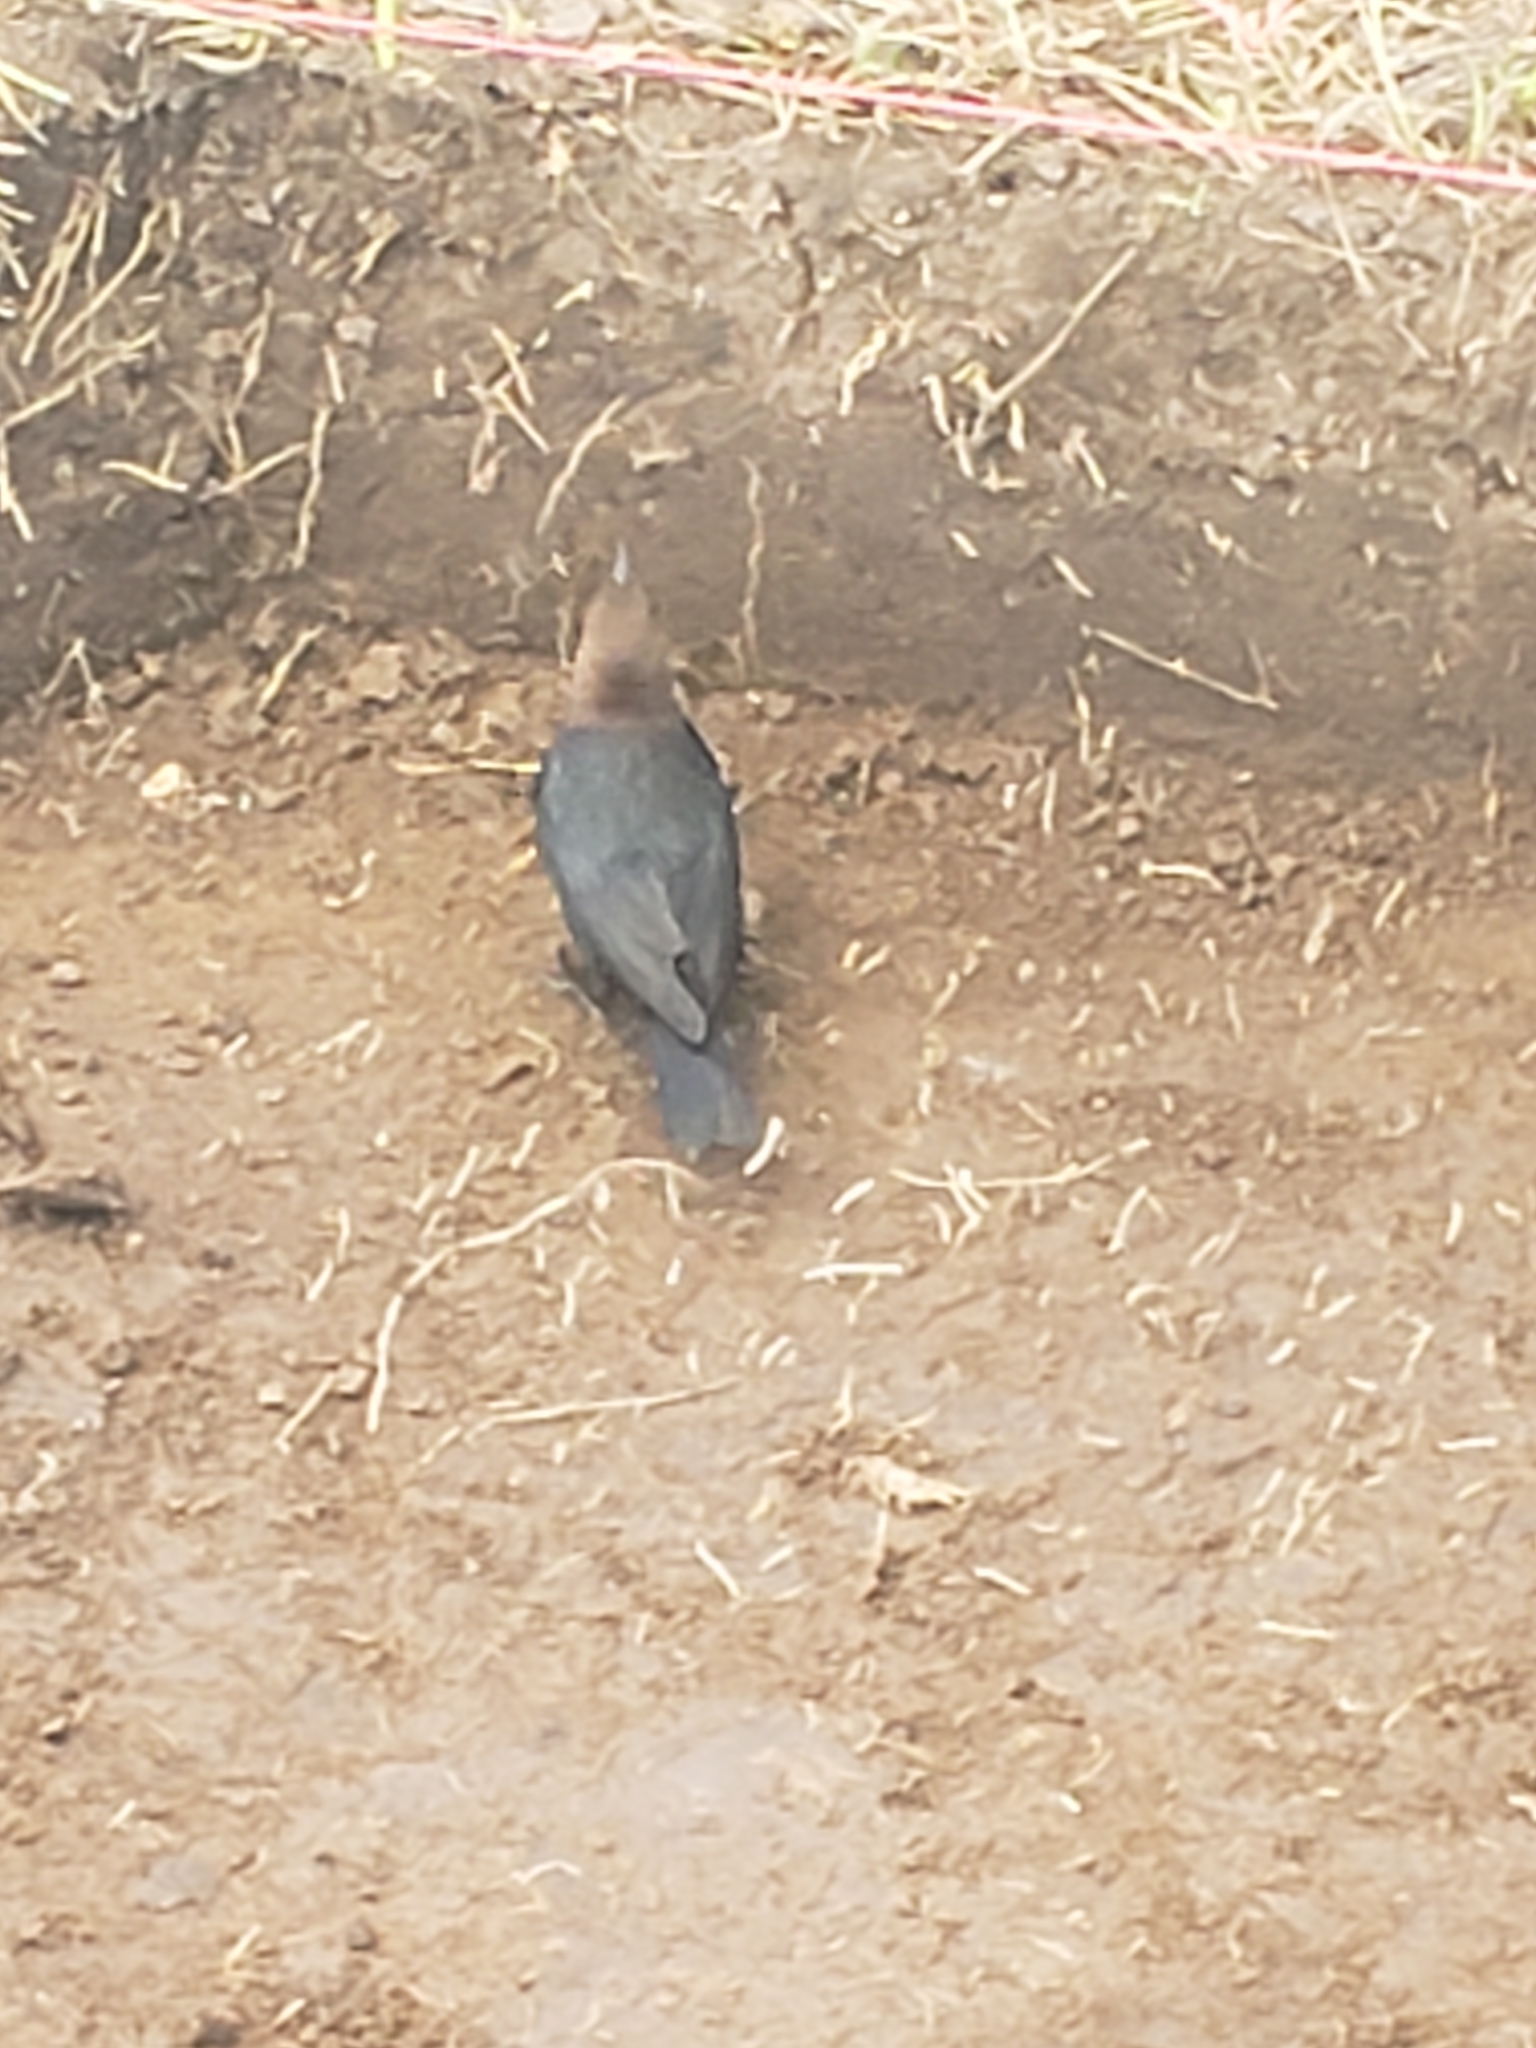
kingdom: Animalia
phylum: Chordata
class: Aves
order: Passeriformes
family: Icteridae
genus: Molothrus
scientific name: Molothrus ater
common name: Brown-headed cowbird
